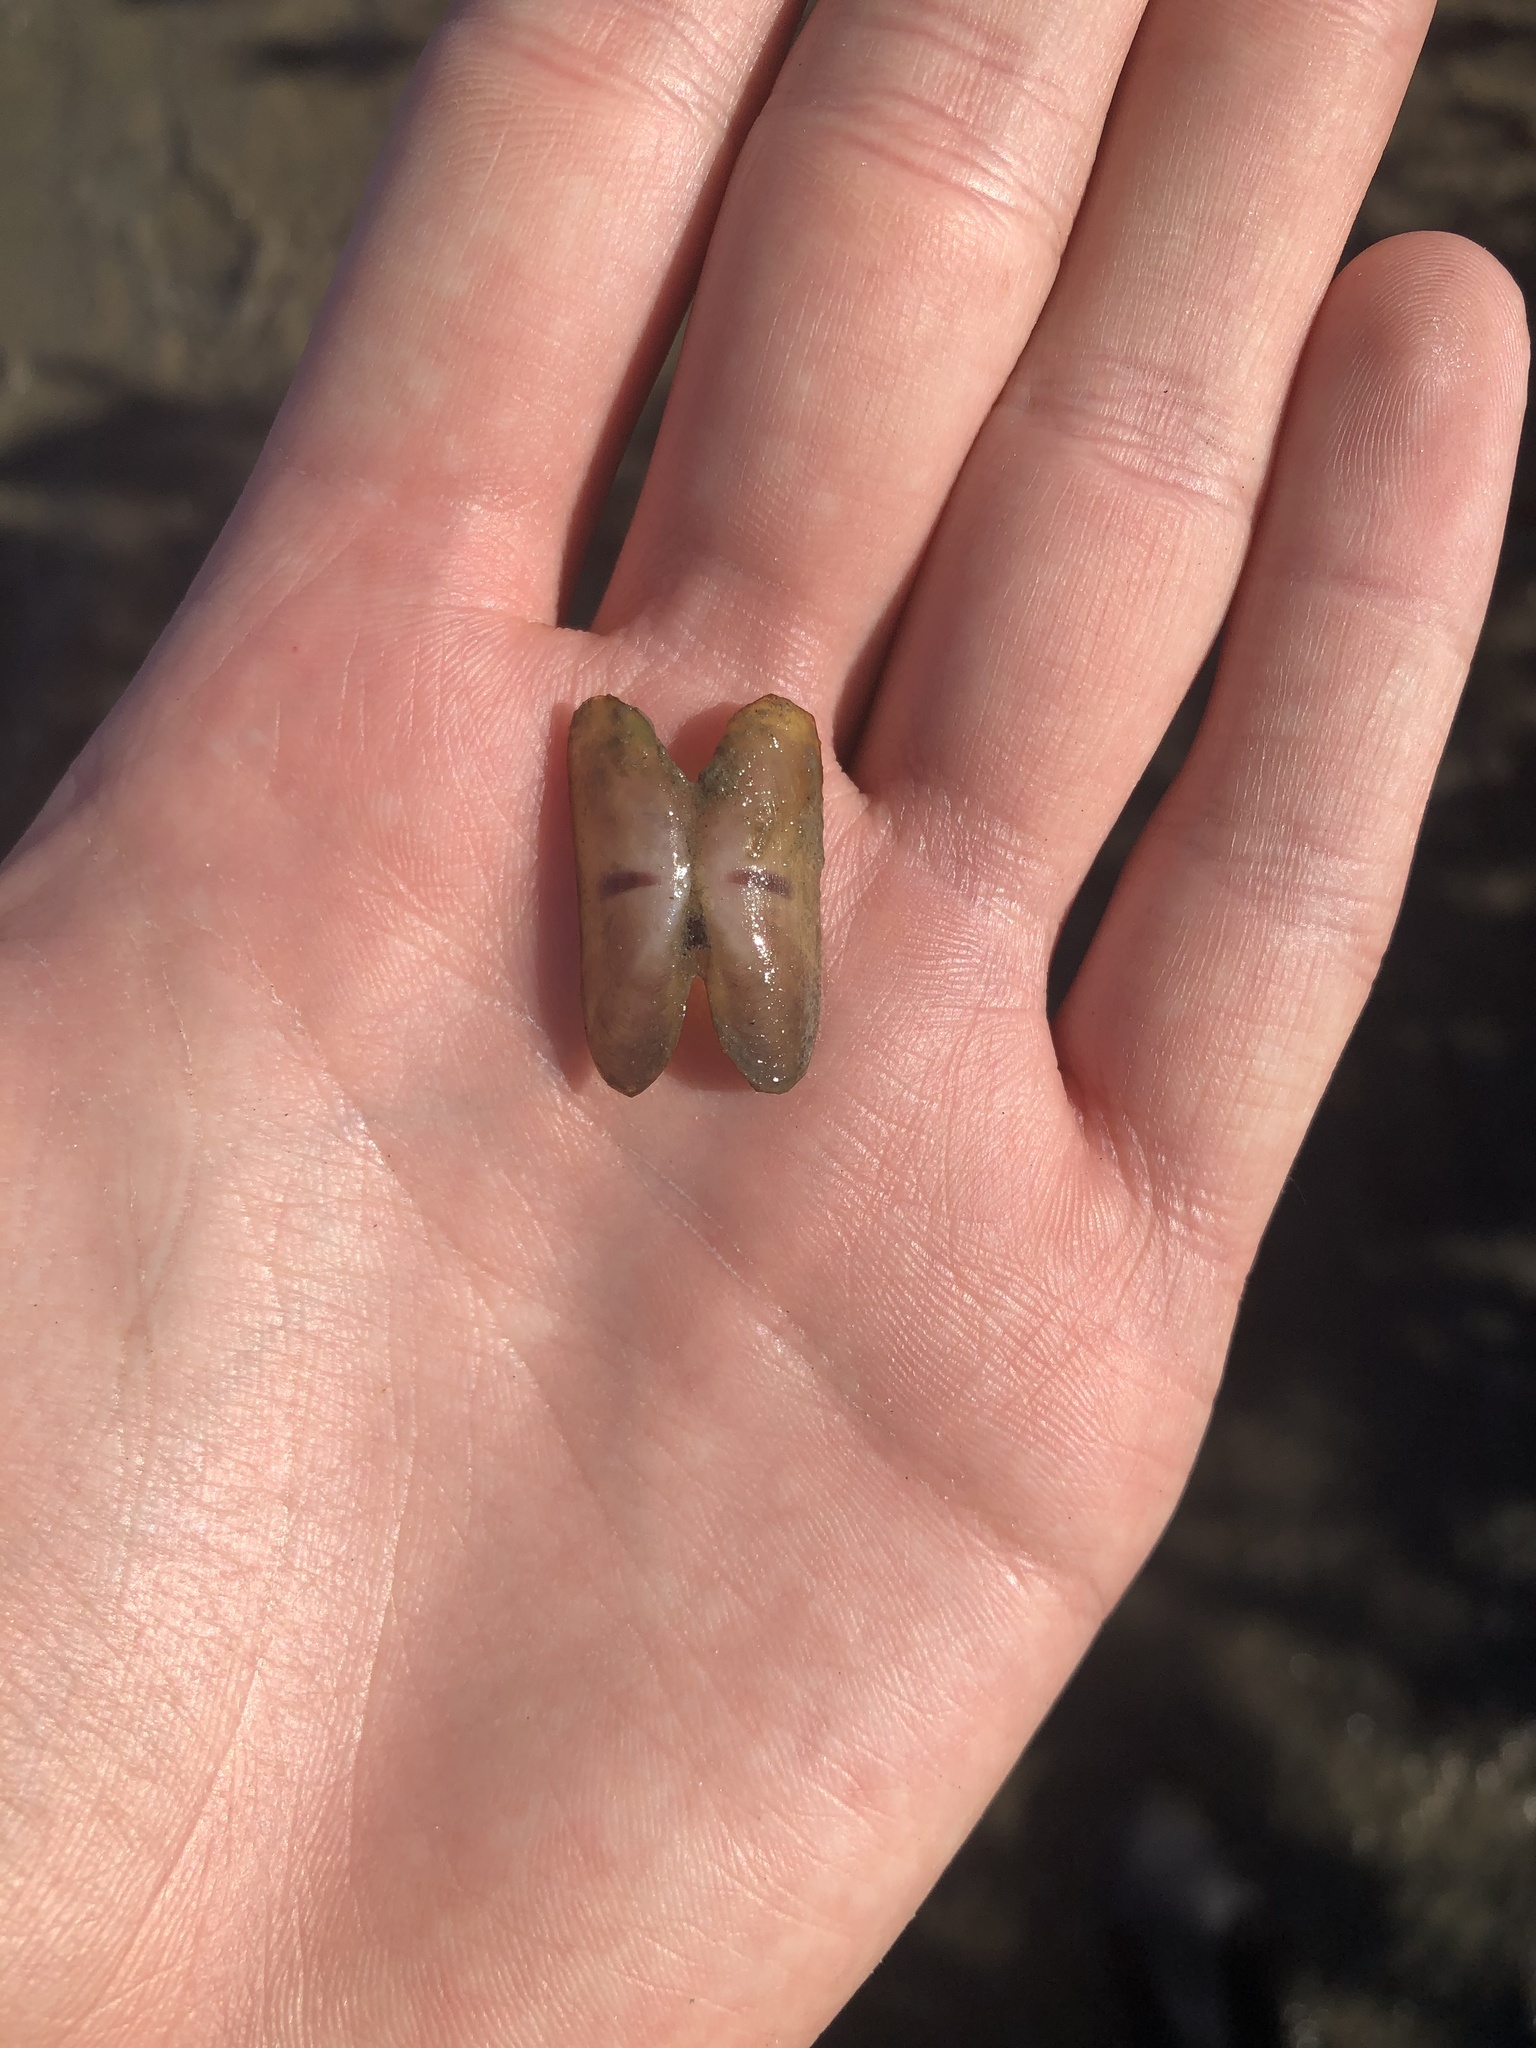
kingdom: Animalia
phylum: Mollusca
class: Bivalvia
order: Cardiida
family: Solecurtidae
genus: Tagelus
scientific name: Tagelus divisus
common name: Purplish tagelus
